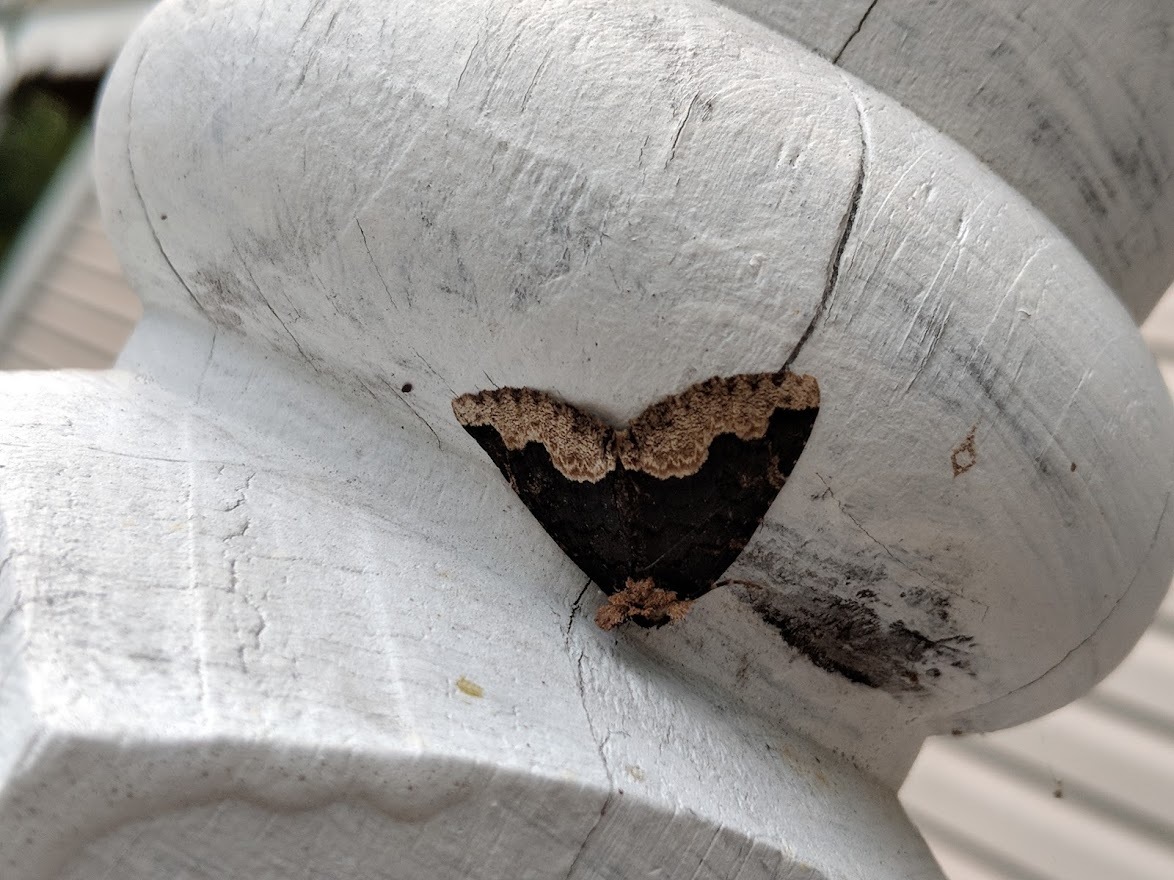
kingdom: Animalia
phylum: Arthropoda
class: Insecta
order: Lepidoptera
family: Erebidae
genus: Zale
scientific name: Zale horrida
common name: Horrid zale moth
